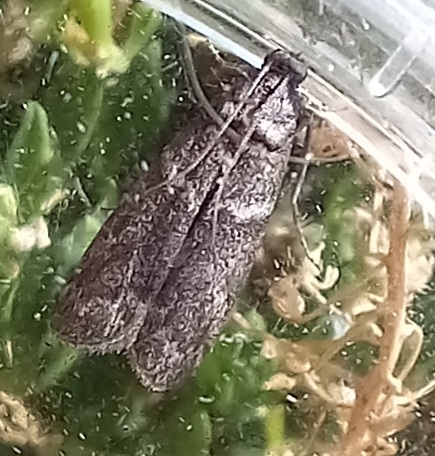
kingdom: Animalia
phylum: Arthropoda
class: Insecta
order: Lepidoptera
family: Pyralidae
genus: Ectomyelois
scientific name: Ectomyelois ceratoniae
